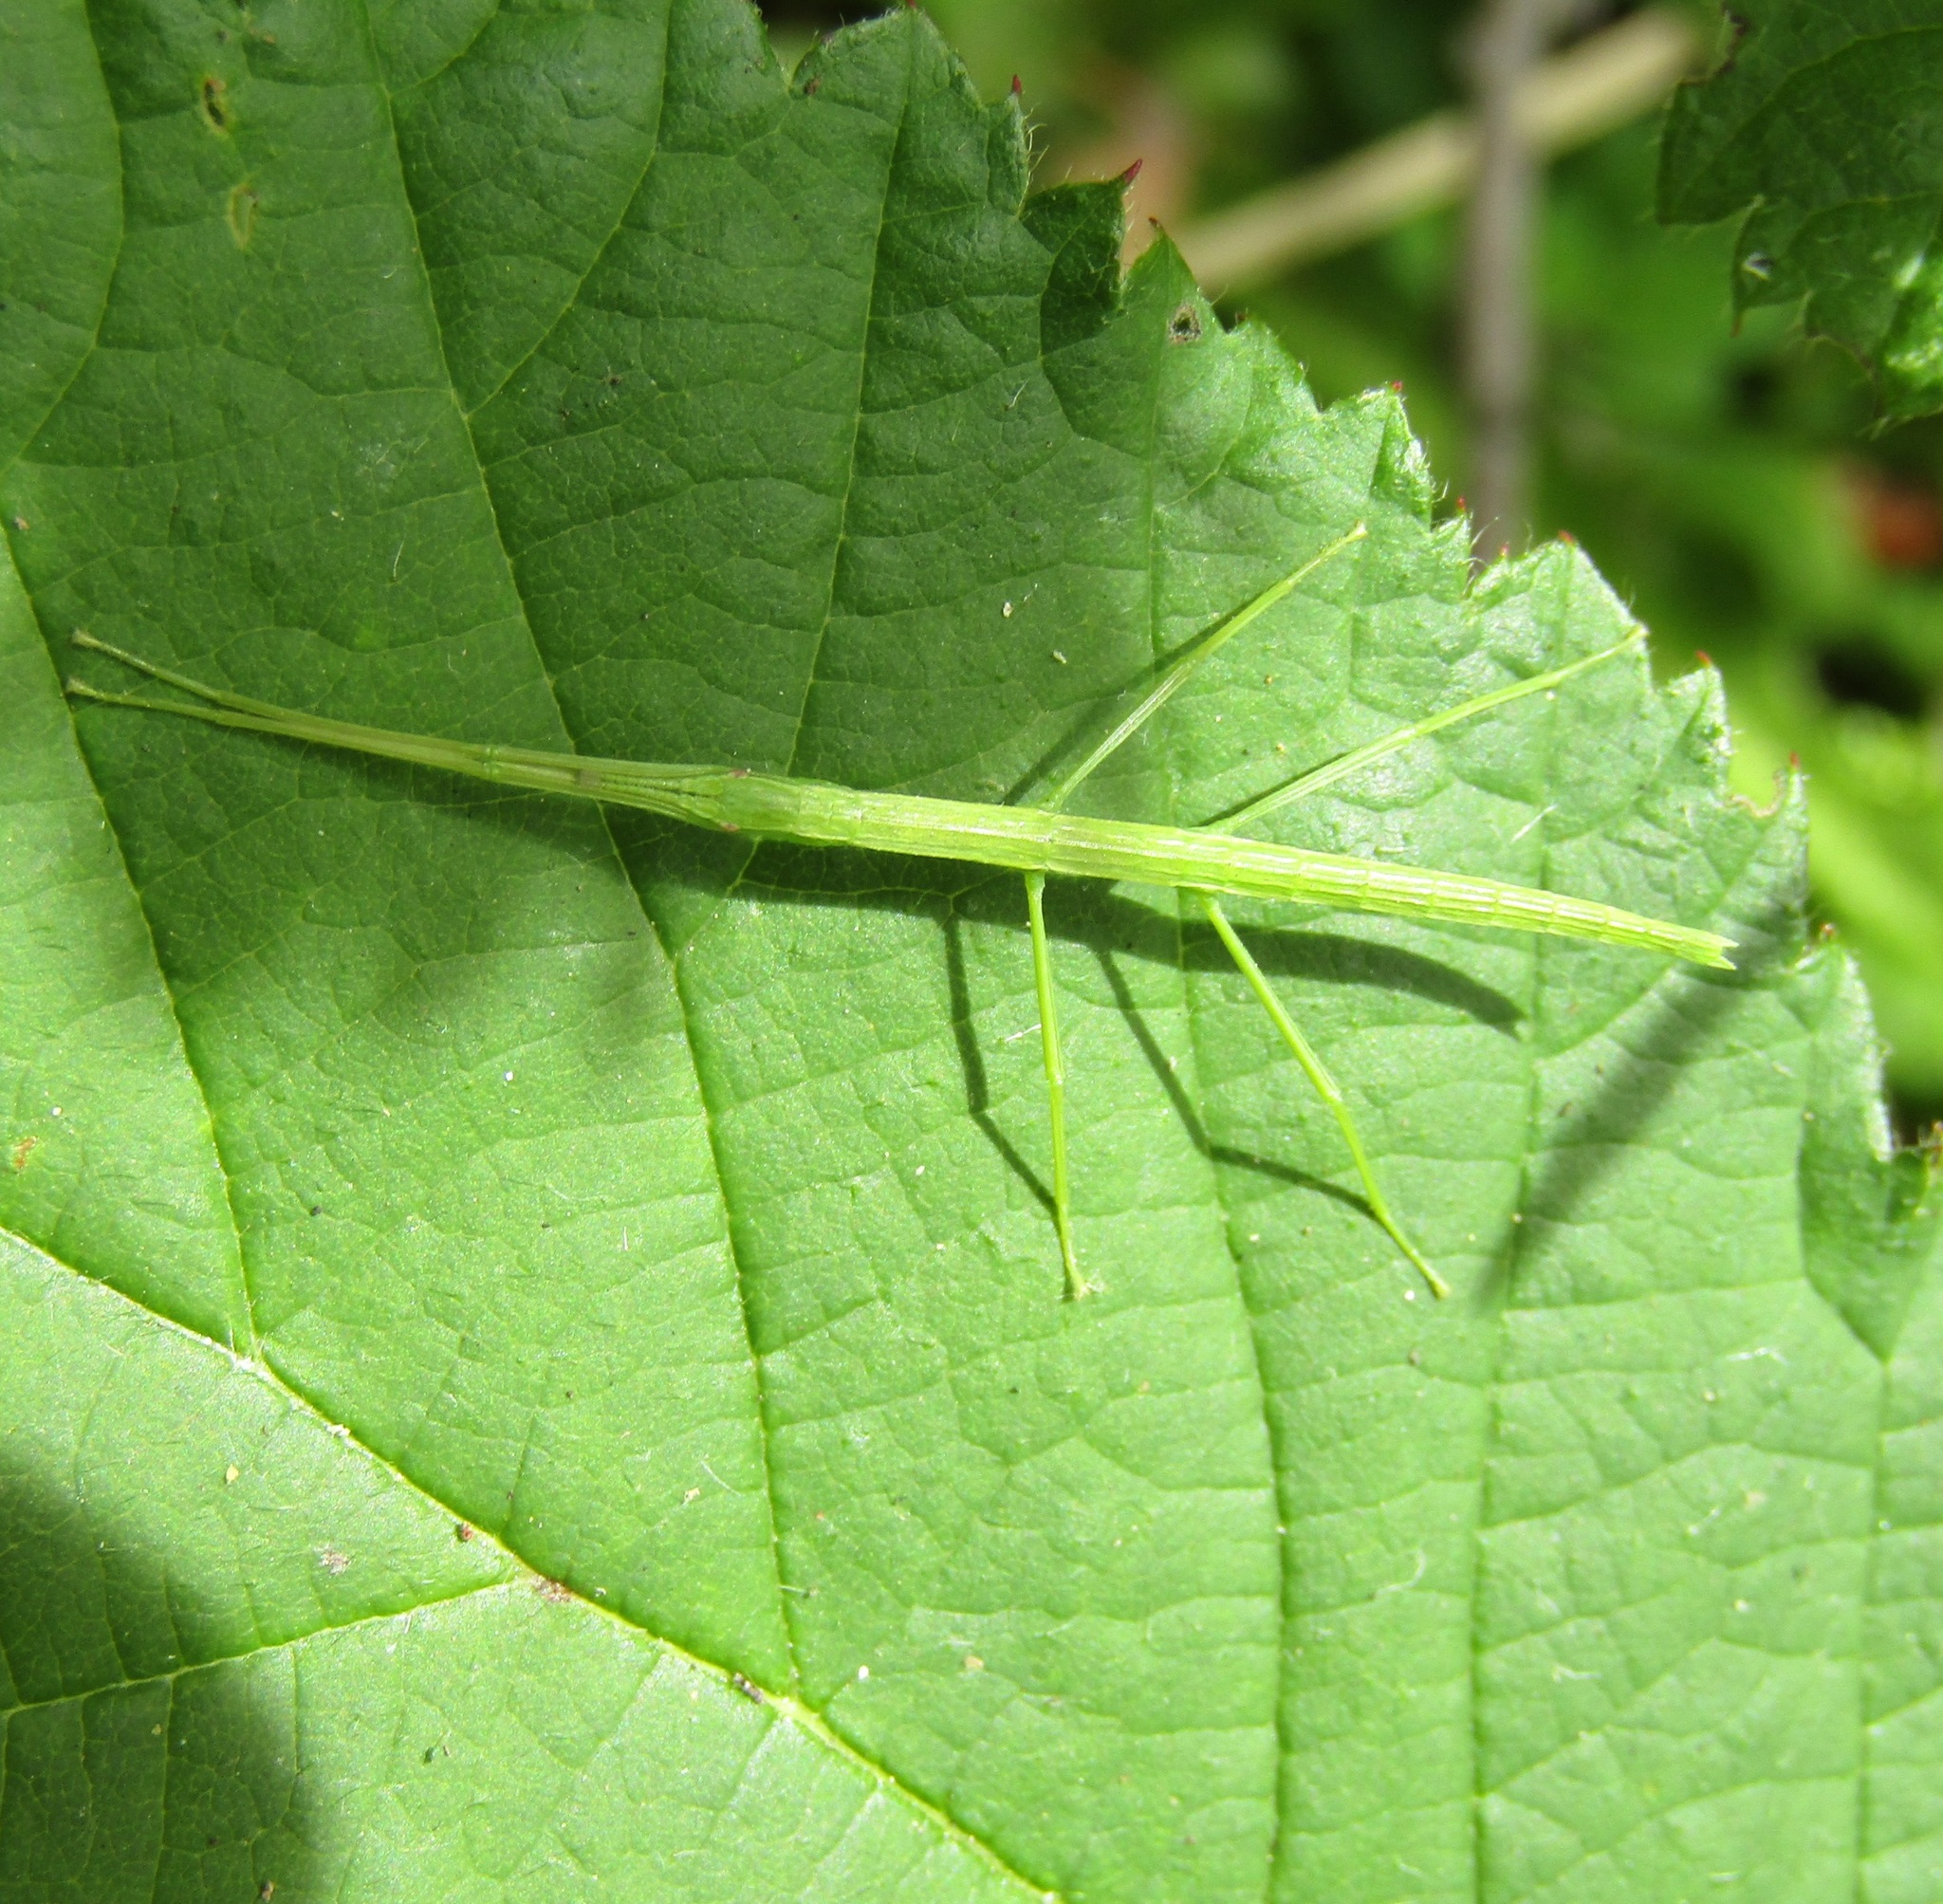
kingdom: Animalia
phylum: Arthropoda
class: Insecta
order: Phasmida
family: Phasmatidae
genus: Tectarchus
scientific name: Tectarchus huttoni
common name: The common ridge-backed stick insect
